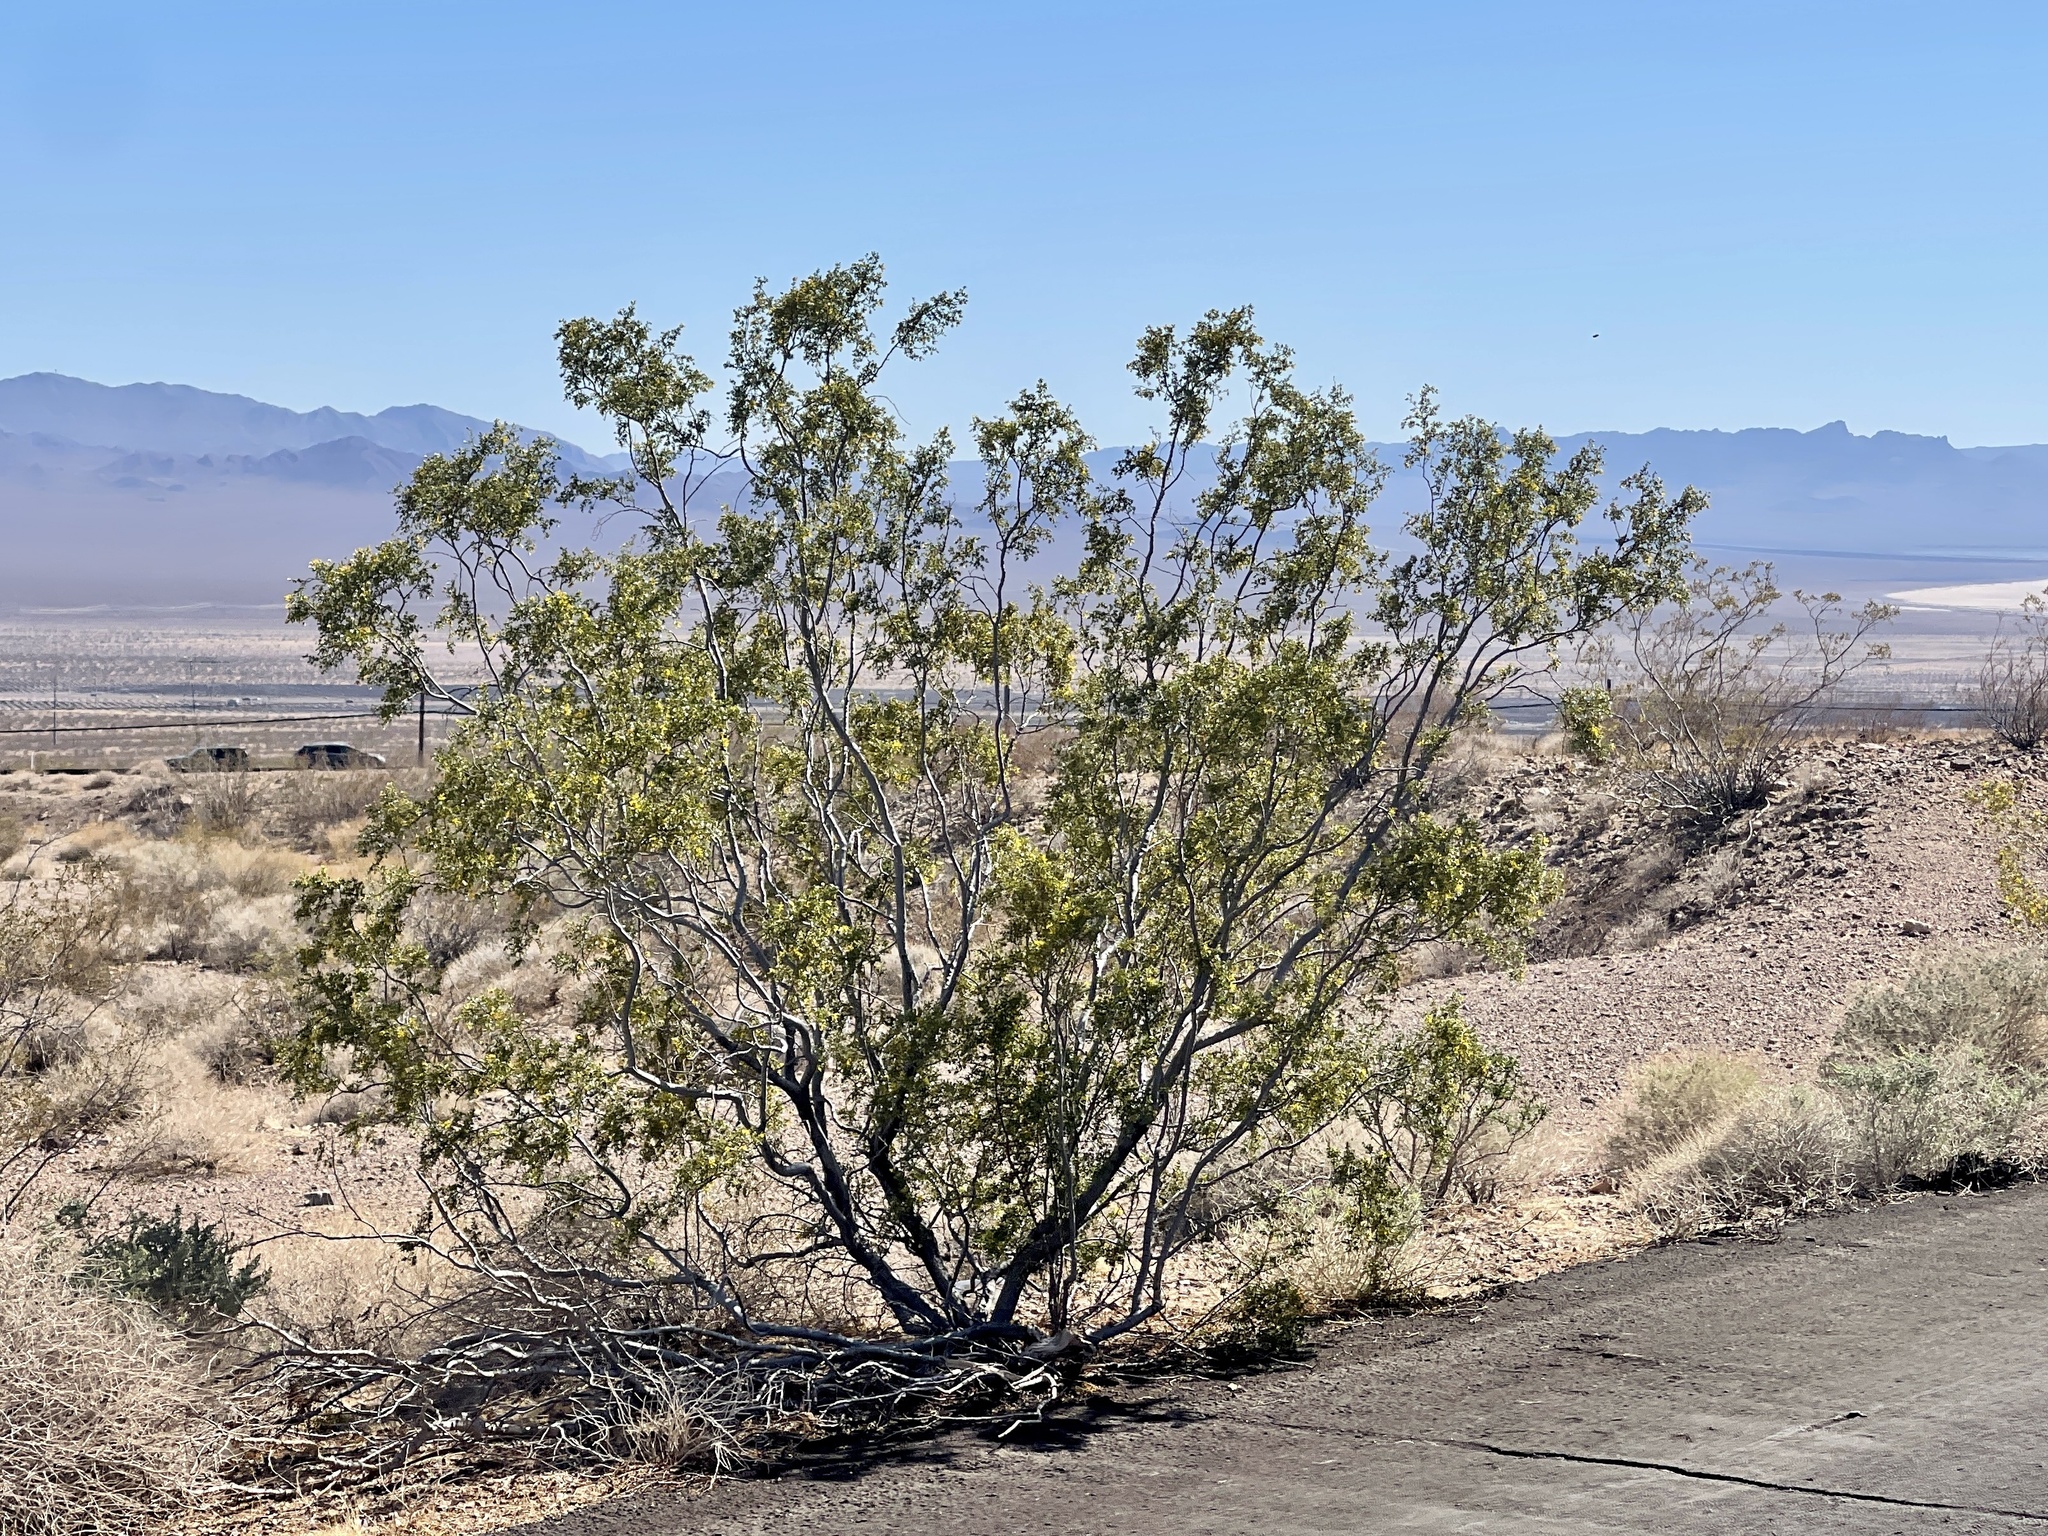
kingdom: Plantae
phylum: Tracheophyta
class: Magnoliopsida
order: Zygophyllales
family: Zygophyllaceae
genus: Larrea
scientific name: Larrea tridentata
